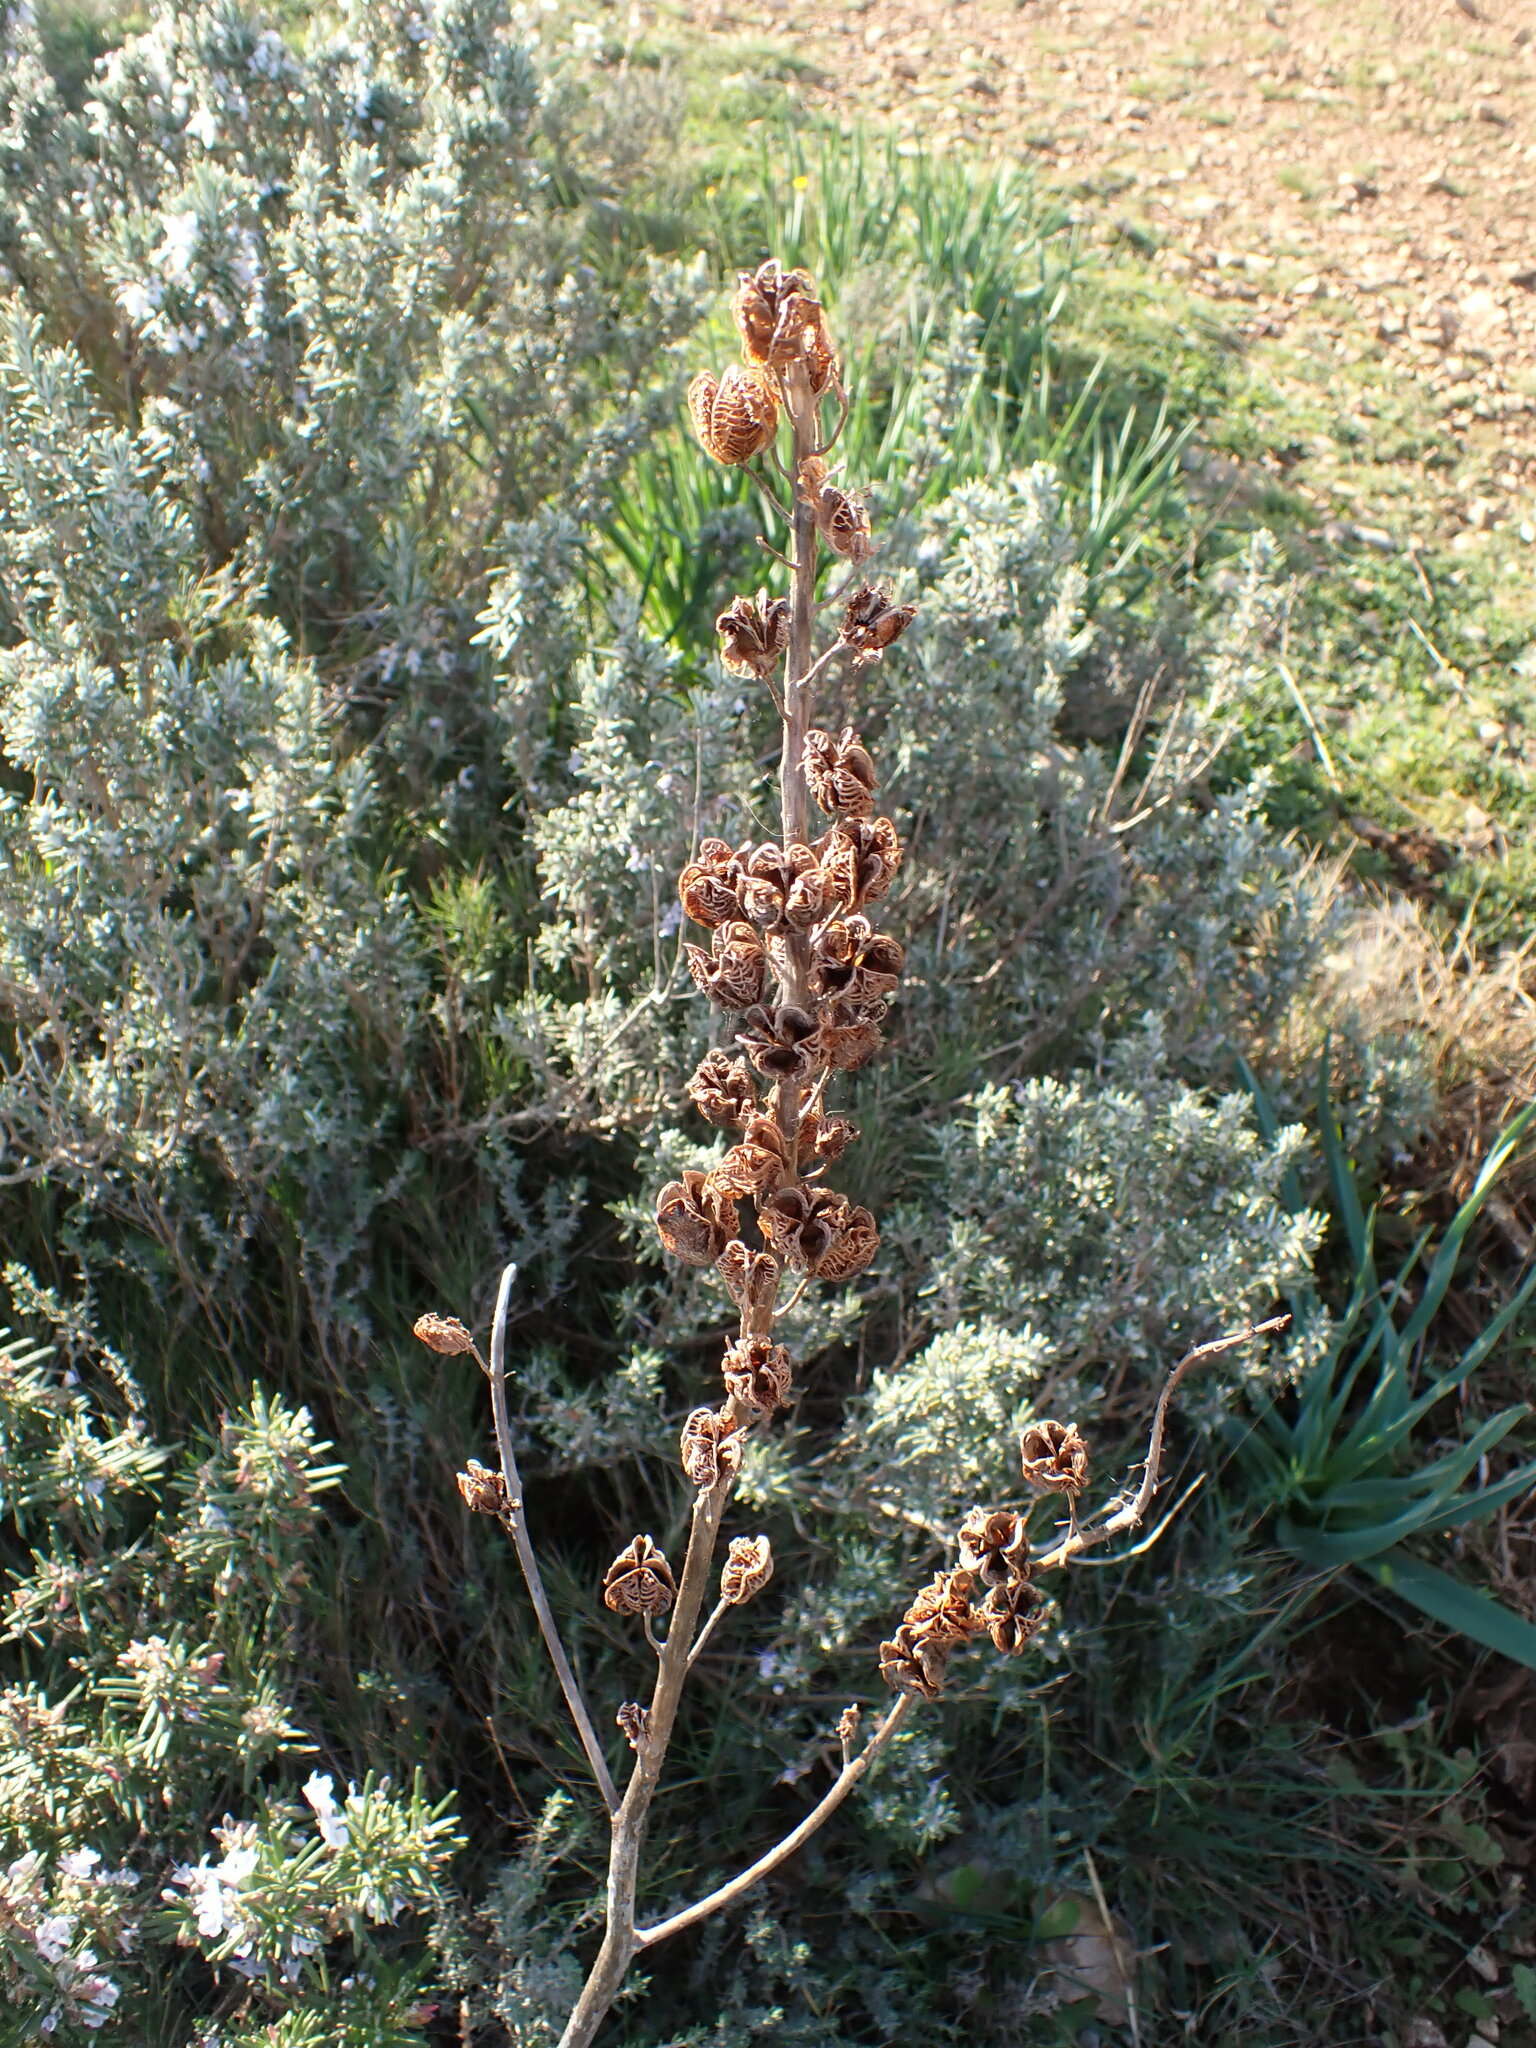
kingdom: Plantae
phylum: Tracheophyta
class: Liliopsida
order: Asparagales
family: Asphodelaceae
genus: Asphodelus
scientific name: Asphodelus cerasifer
